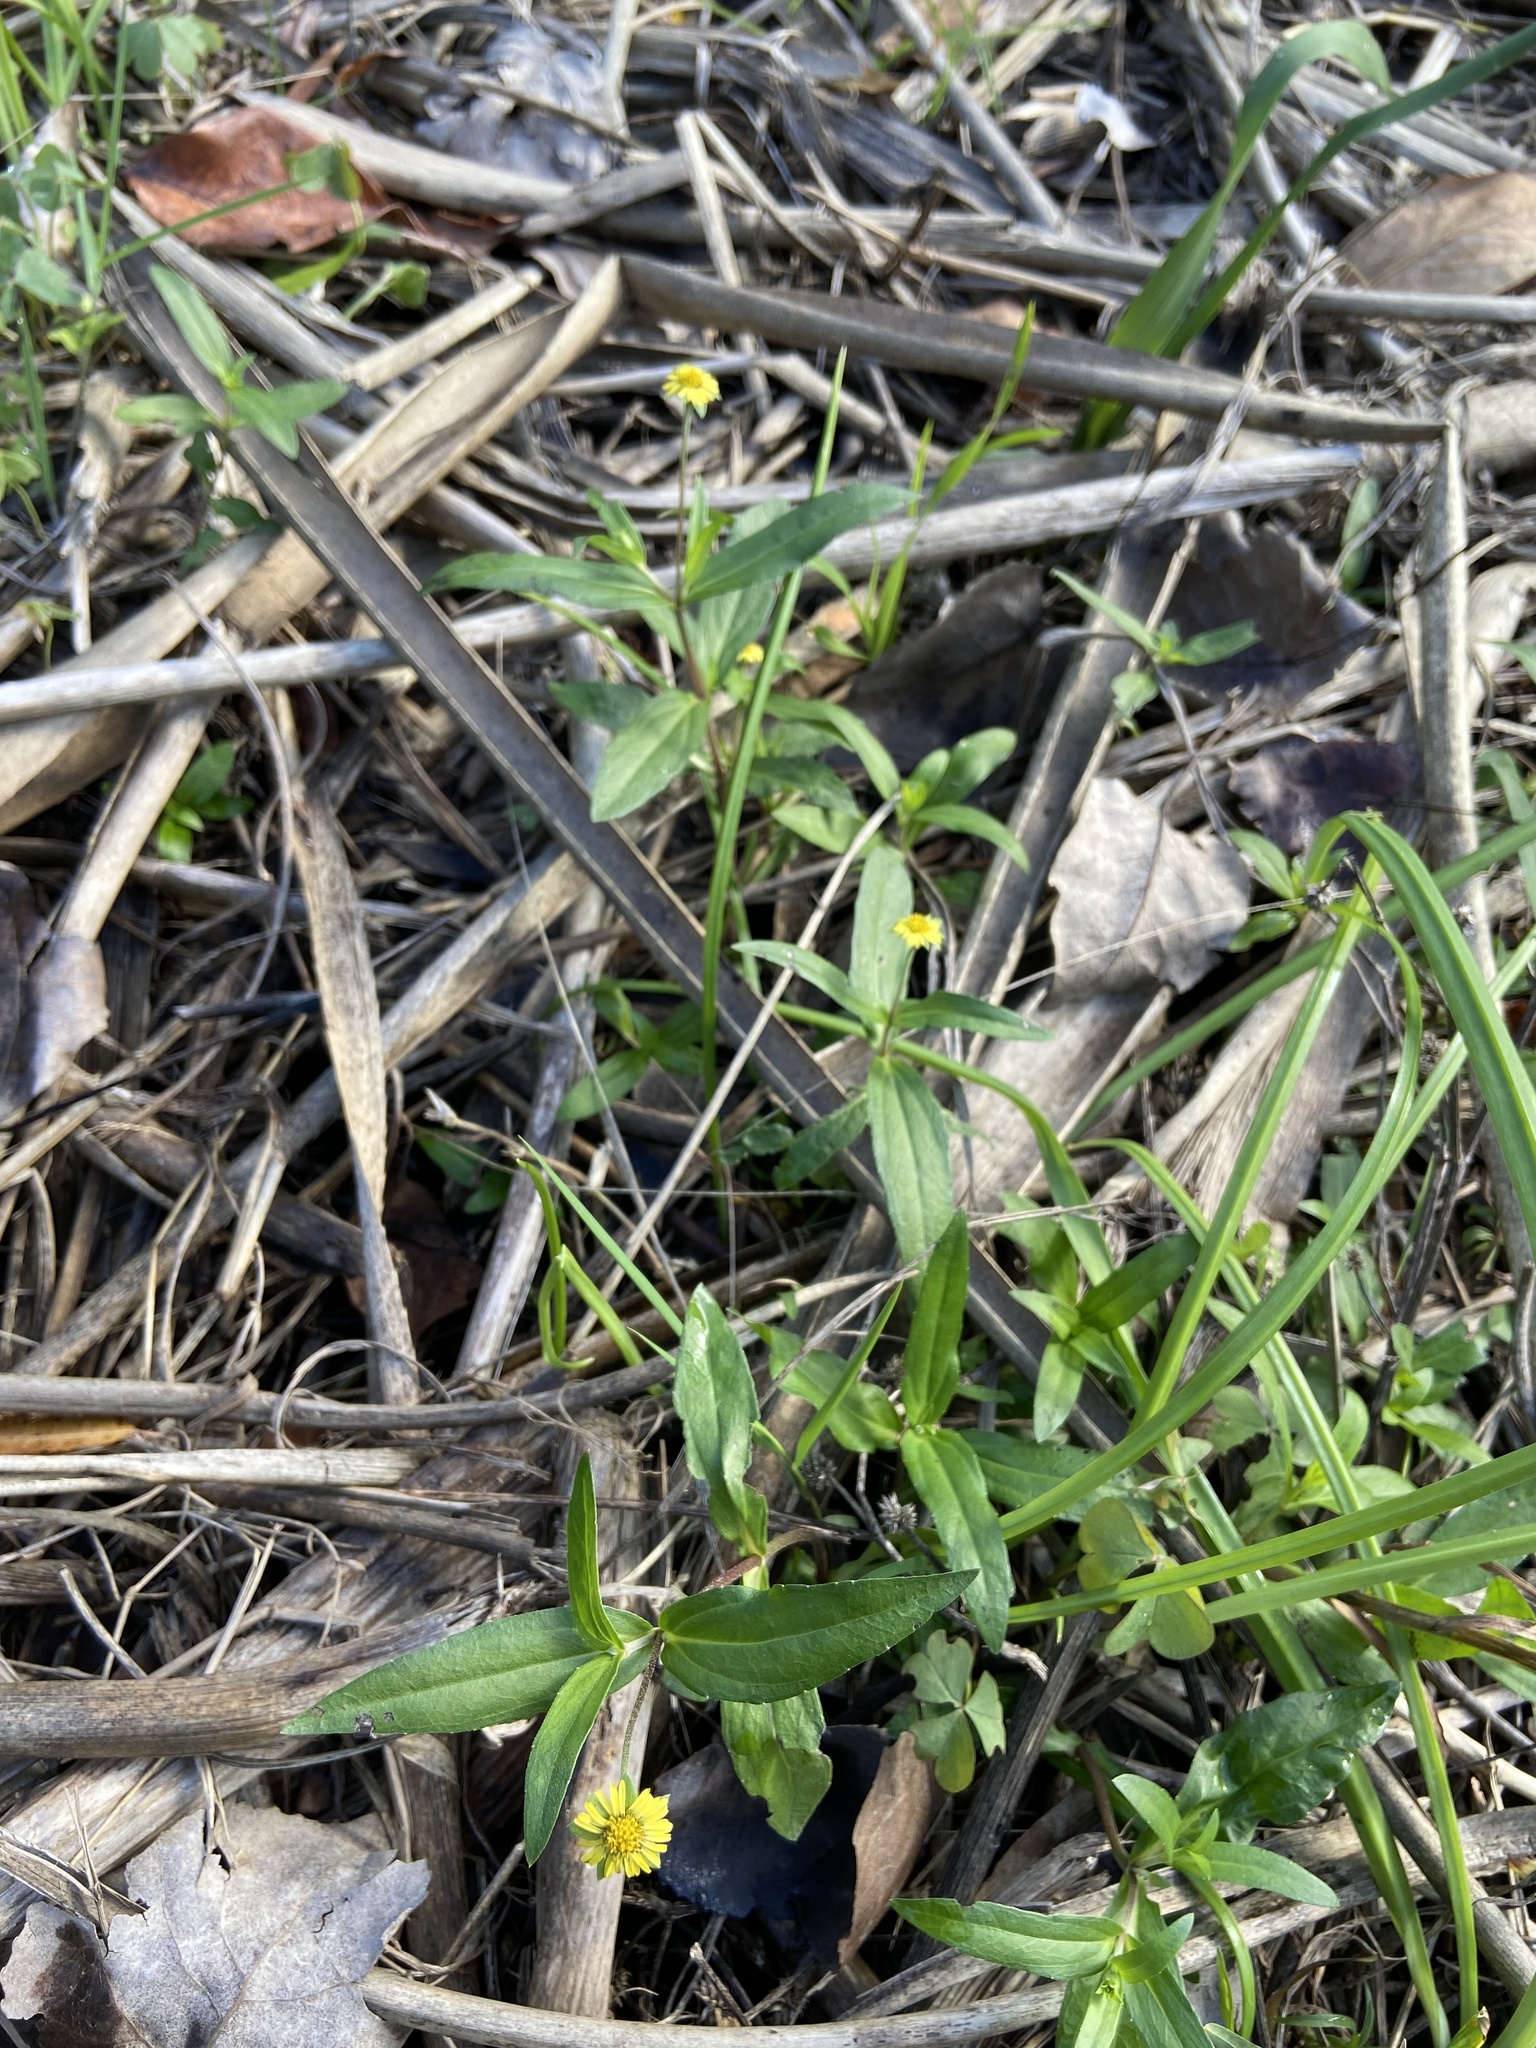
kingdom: Plantae
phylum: Tracheophyta
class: Magnoliopsida
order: Asterales
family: Asteraceae
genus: Eclipta
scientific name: Eclipta megapotamica
